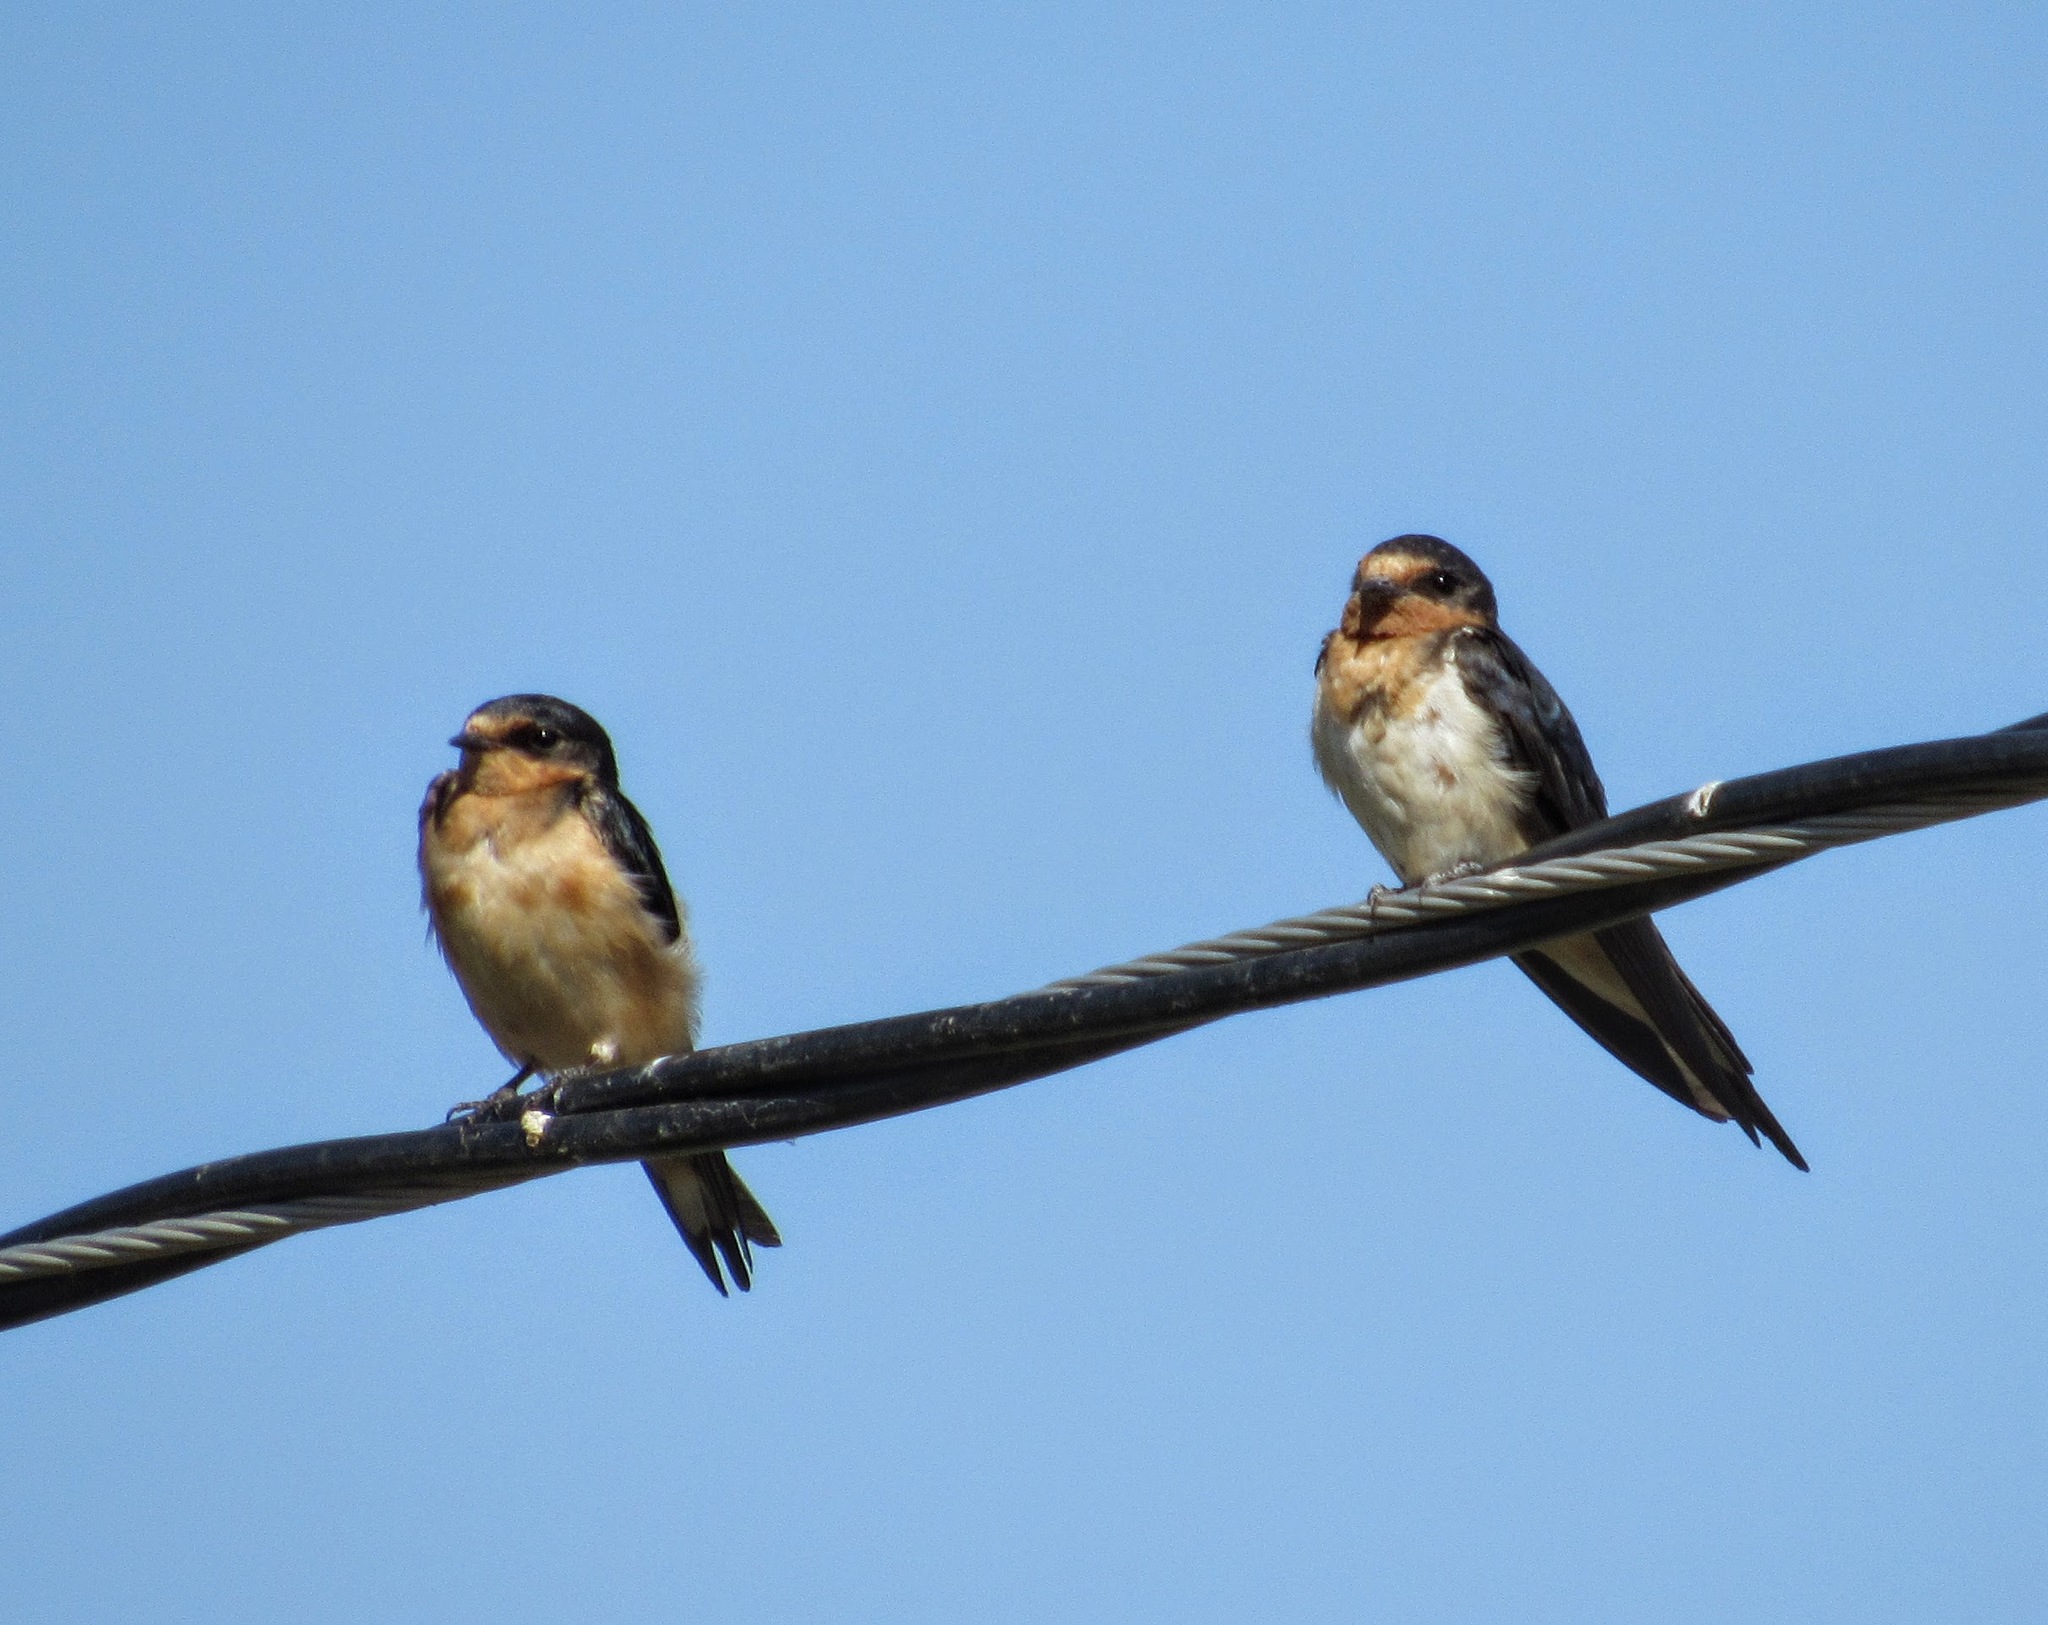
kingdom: Animalia
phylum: Chordata
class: Aves
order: Passeriformes
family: Hirundinidae
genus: Hirundo
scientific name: Hirundo rustica
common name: Barn swallow
